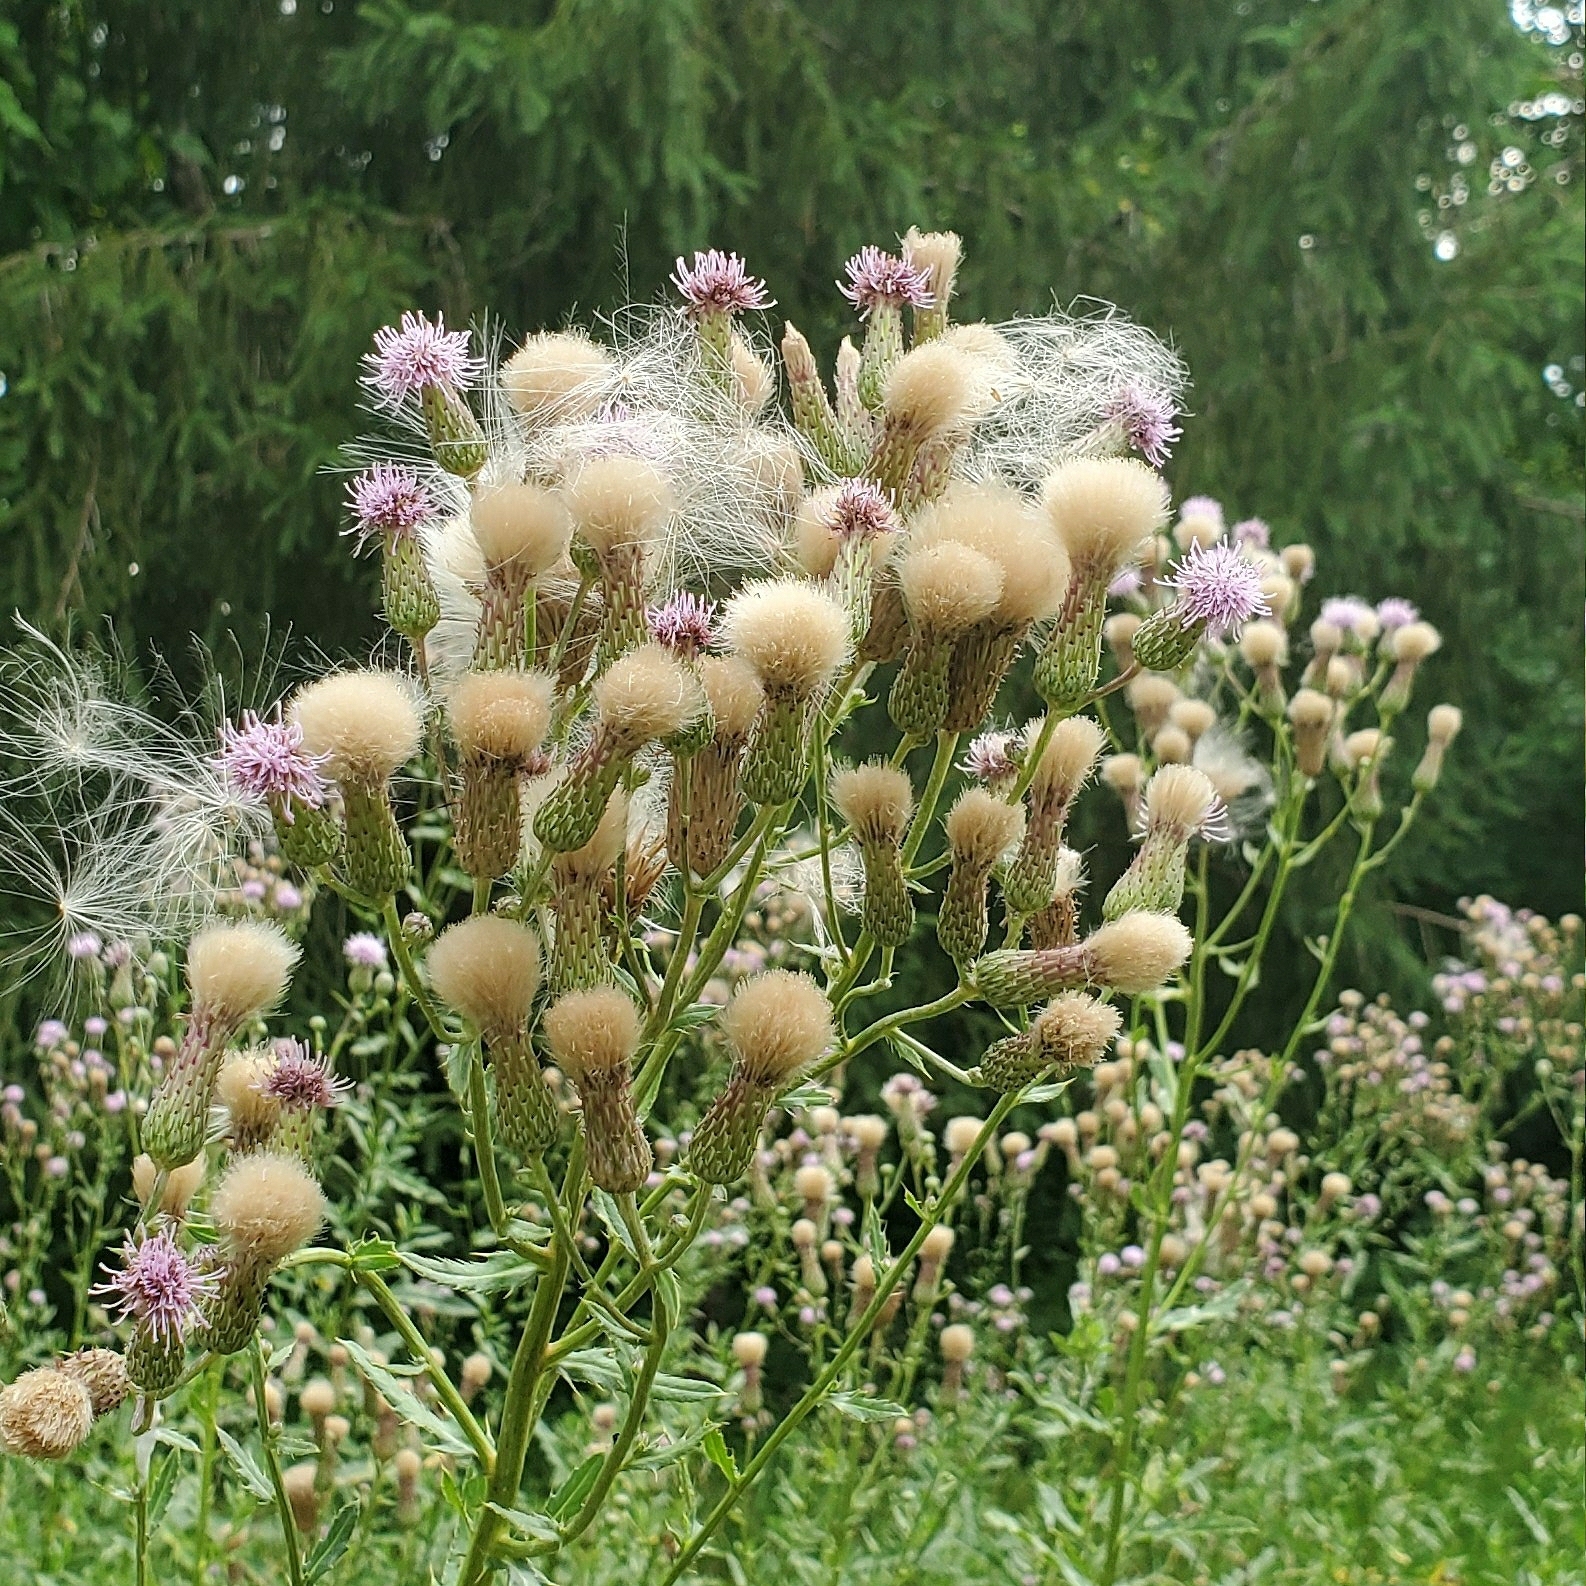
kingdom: Plantae
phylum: Tracheophyta
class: Magnoliopsida
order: Asterales
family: Asteraceae
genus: Cirsium
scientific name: Cirsium arvense
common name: Creeping thistle
